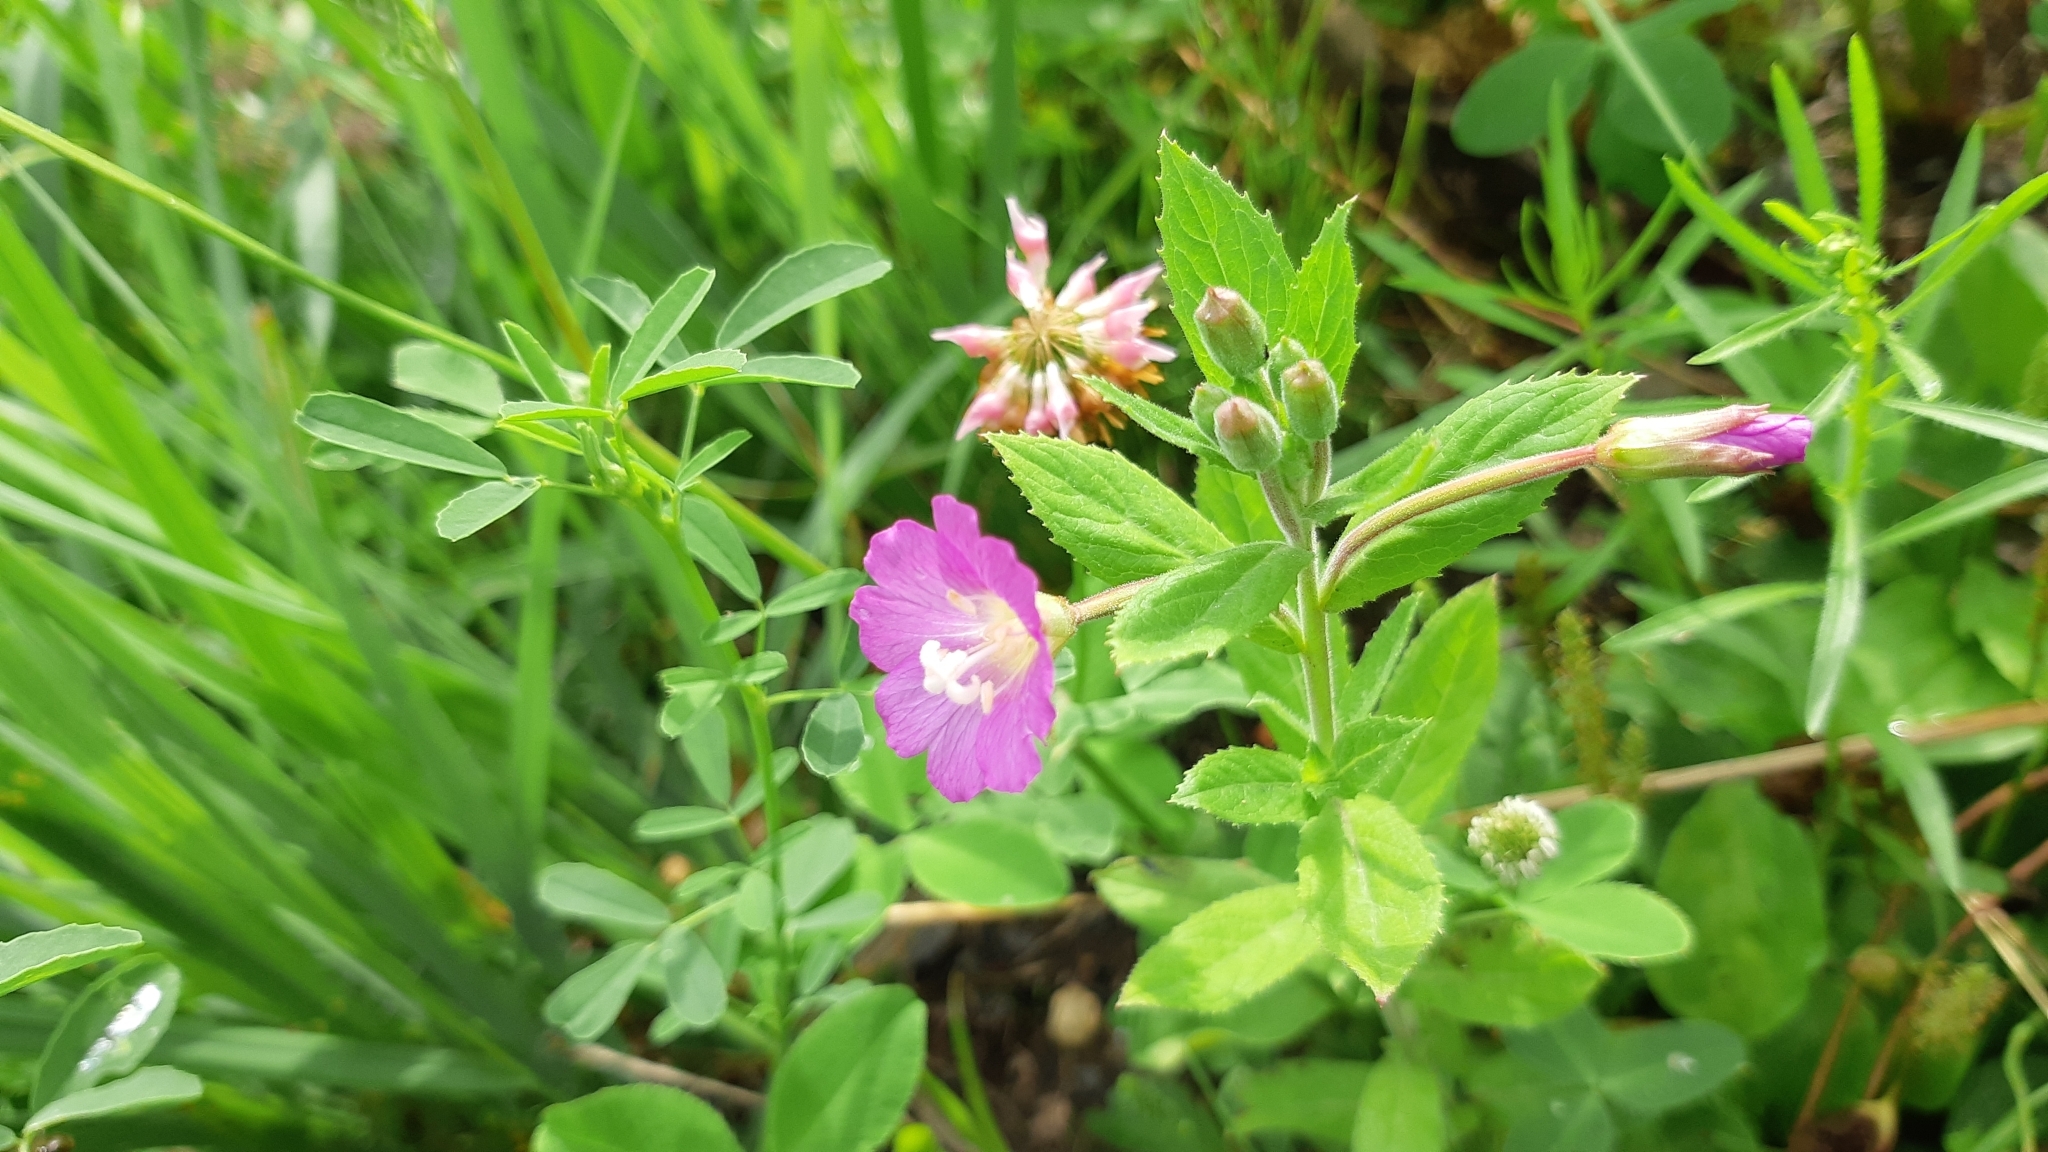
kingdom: Plantae
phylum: Tracheophyta
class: Magnoliopsida
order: Myrtales
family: Onagraceae
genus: Epilobium
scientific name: Epilobium hirsutum
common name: Great willowherb
